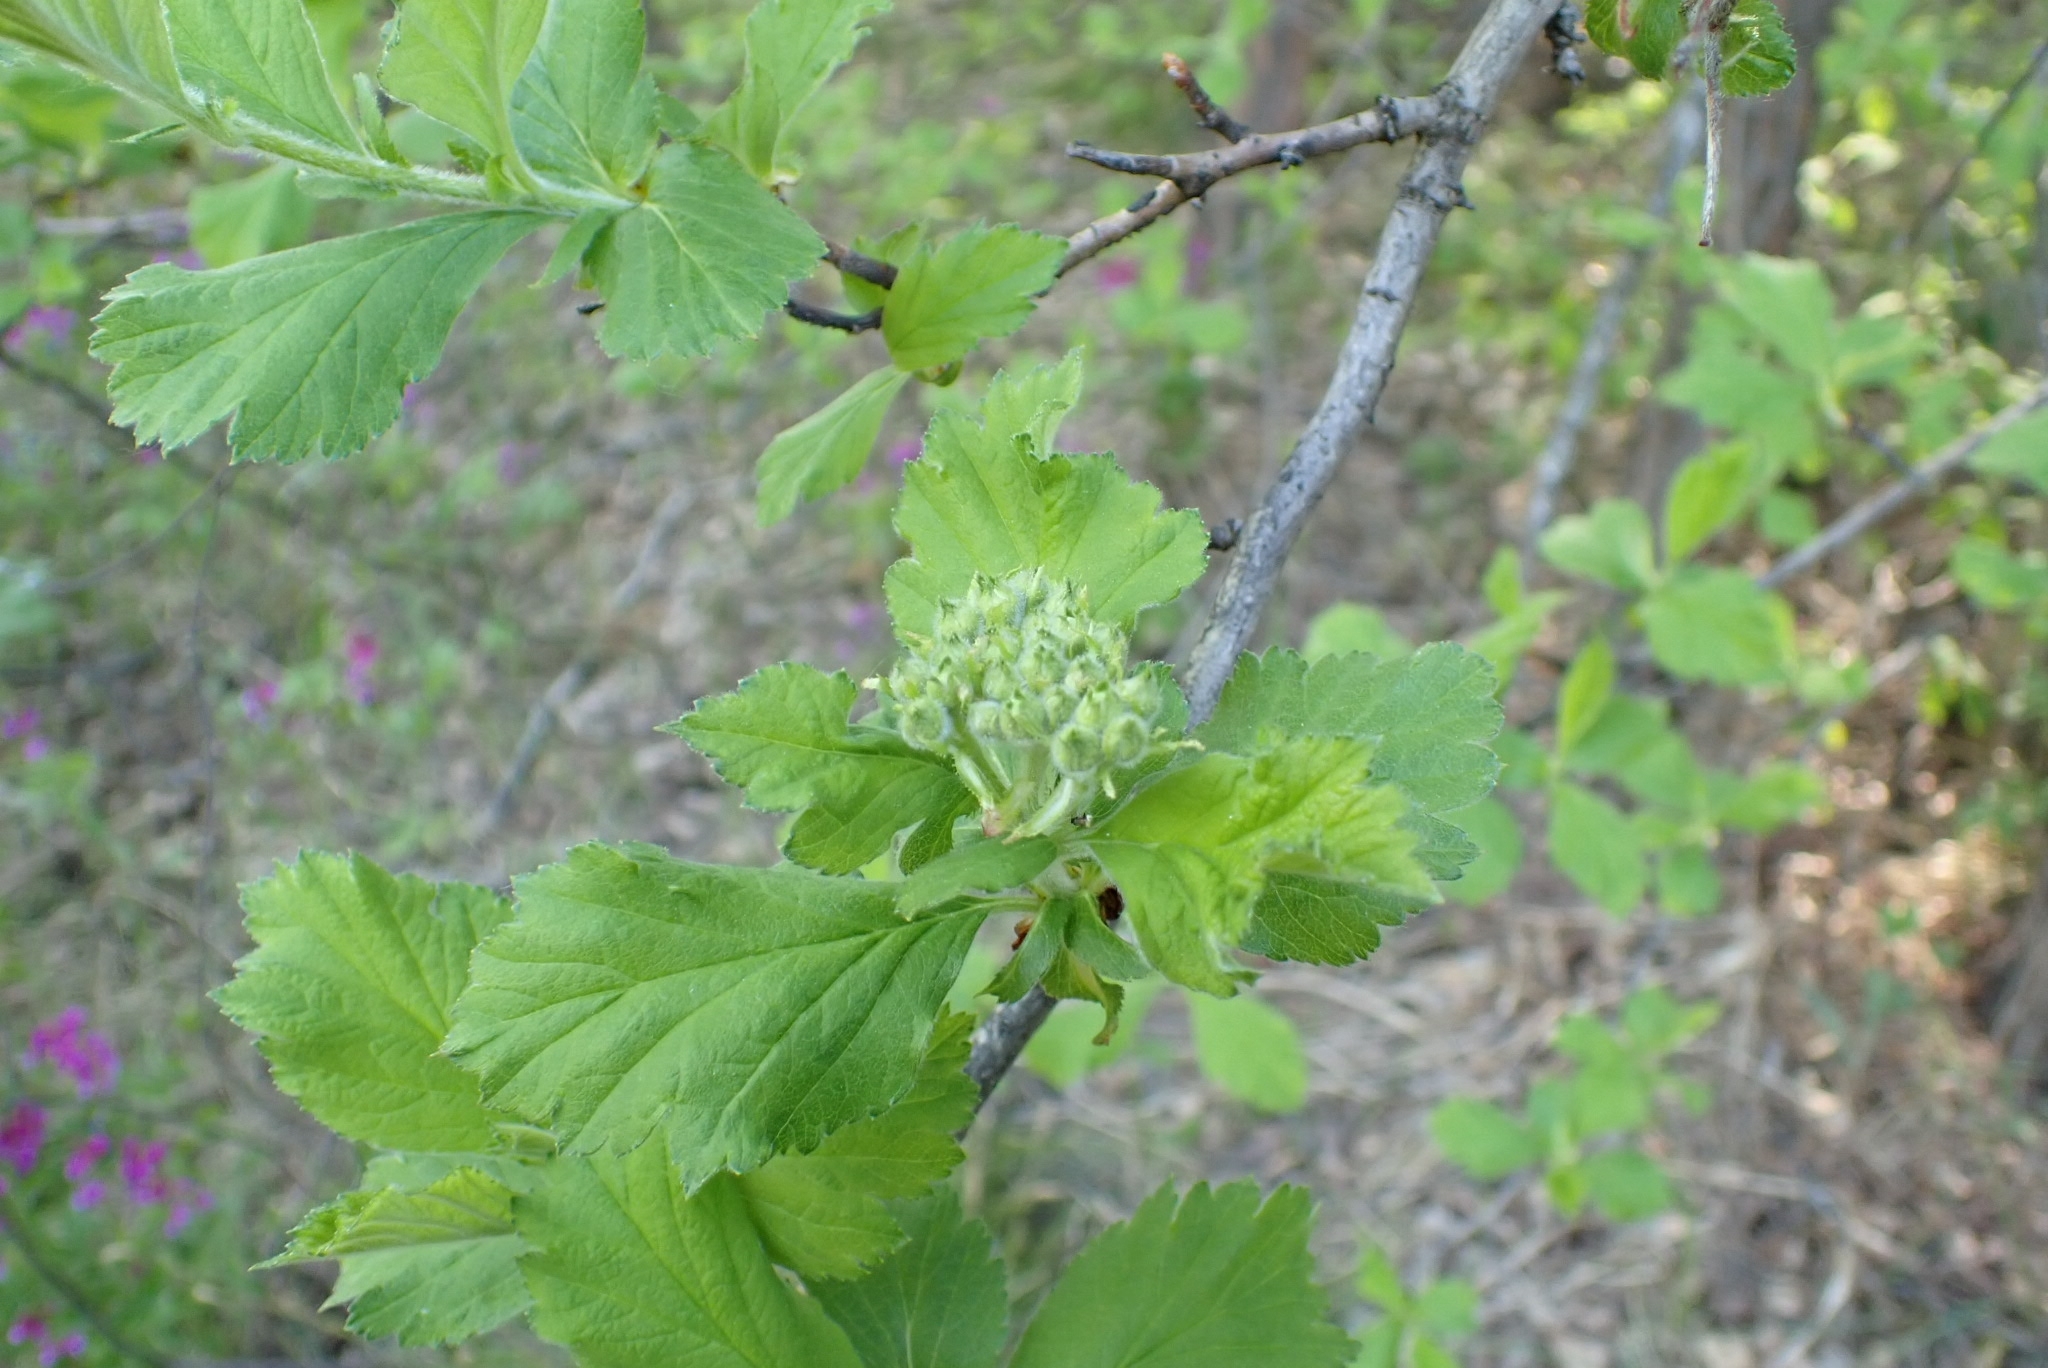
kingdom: Plantae
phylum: Tracheophyta
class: Magnoliopsida
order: Rosales
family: Rosaceae
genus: Crataegus
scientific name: Crataegus sanguinea
